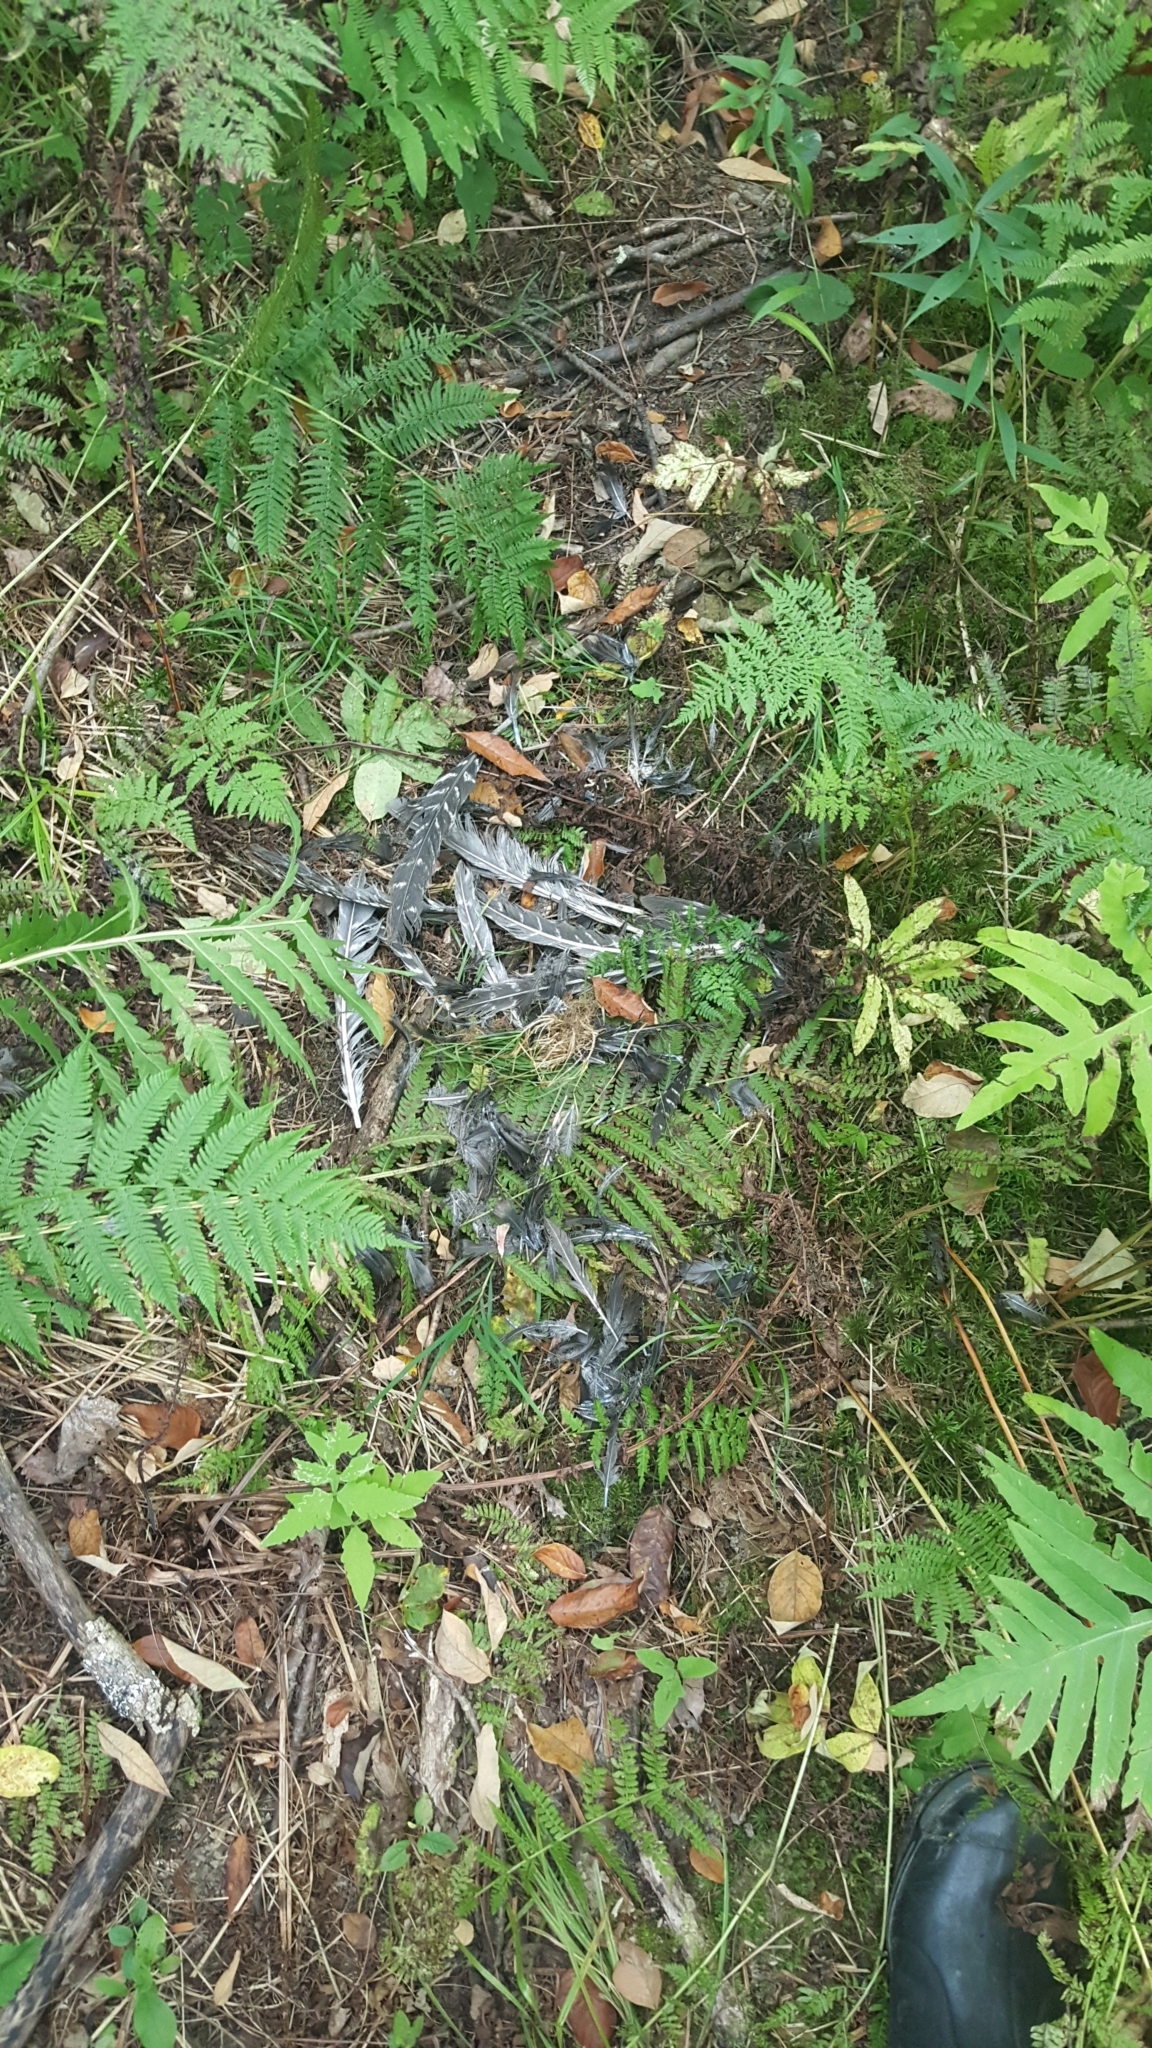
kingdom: Animalia
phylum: Chordata
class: Aves
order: Galliformes
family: Phasianidae
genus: Meleagris
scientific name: Meleagris gallopavo
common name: Wild turkey
